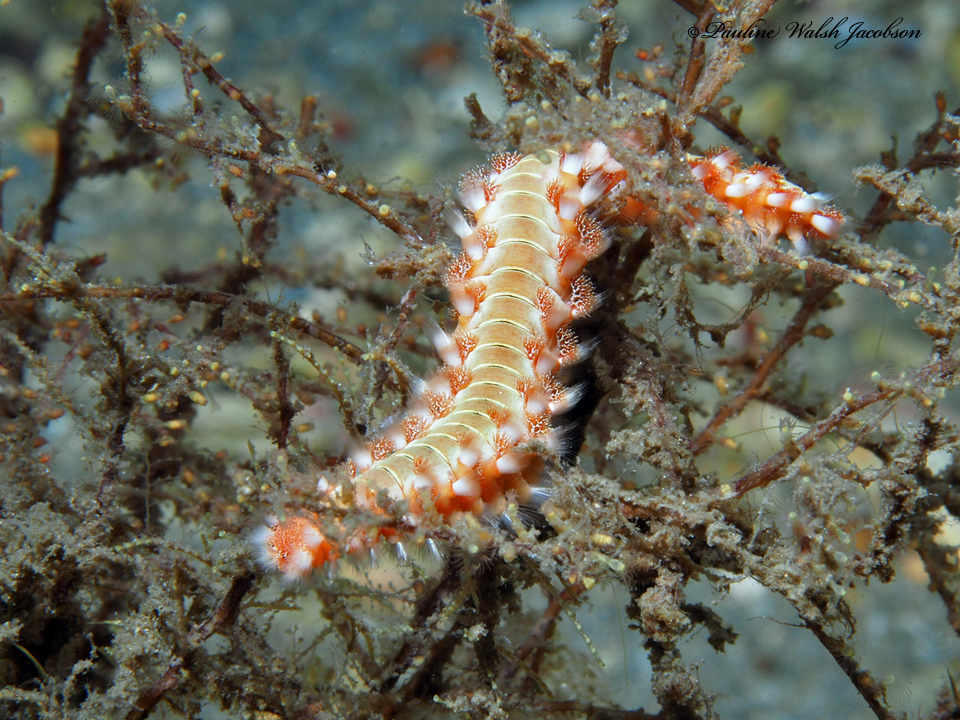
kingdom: Animalia
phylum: Annelida
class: Polychaeta
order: Amphinomida
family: Amphinomidae
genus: Hermodice
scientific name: Hermodice carunculata
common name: Bearded fireworm
